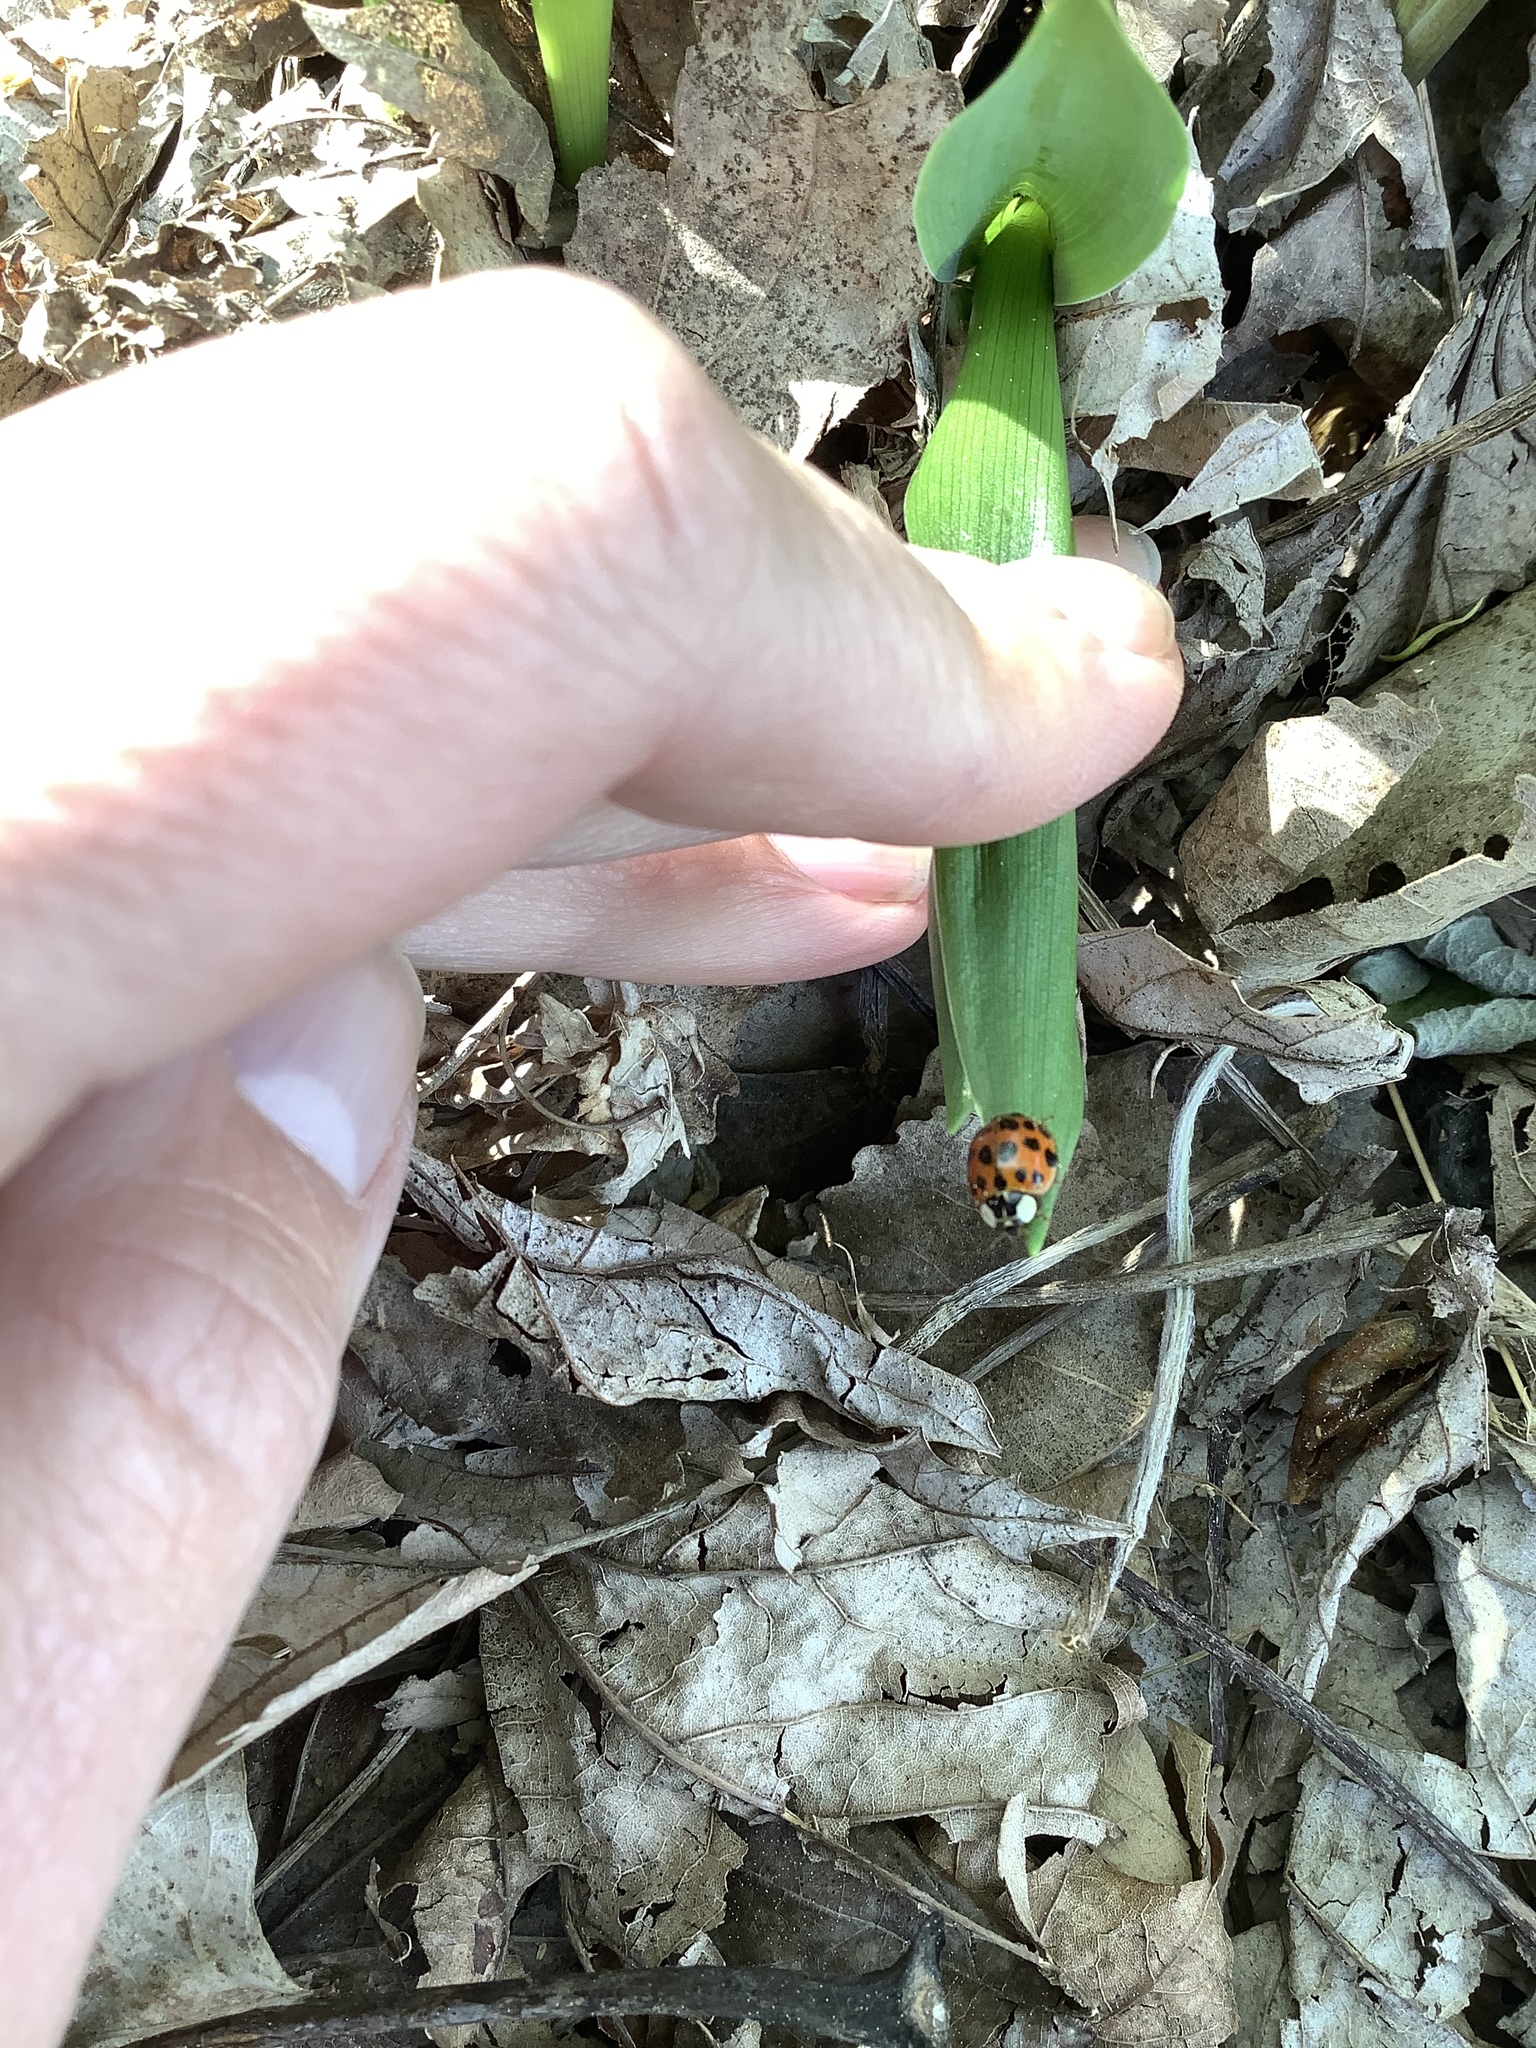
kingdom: Animalia
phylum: Arthropoda
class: Insecta
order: Coleoptera
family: Coccinellidae
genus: Harmonia
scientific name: Harmonia axyridis
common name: Harlequin ladybird
